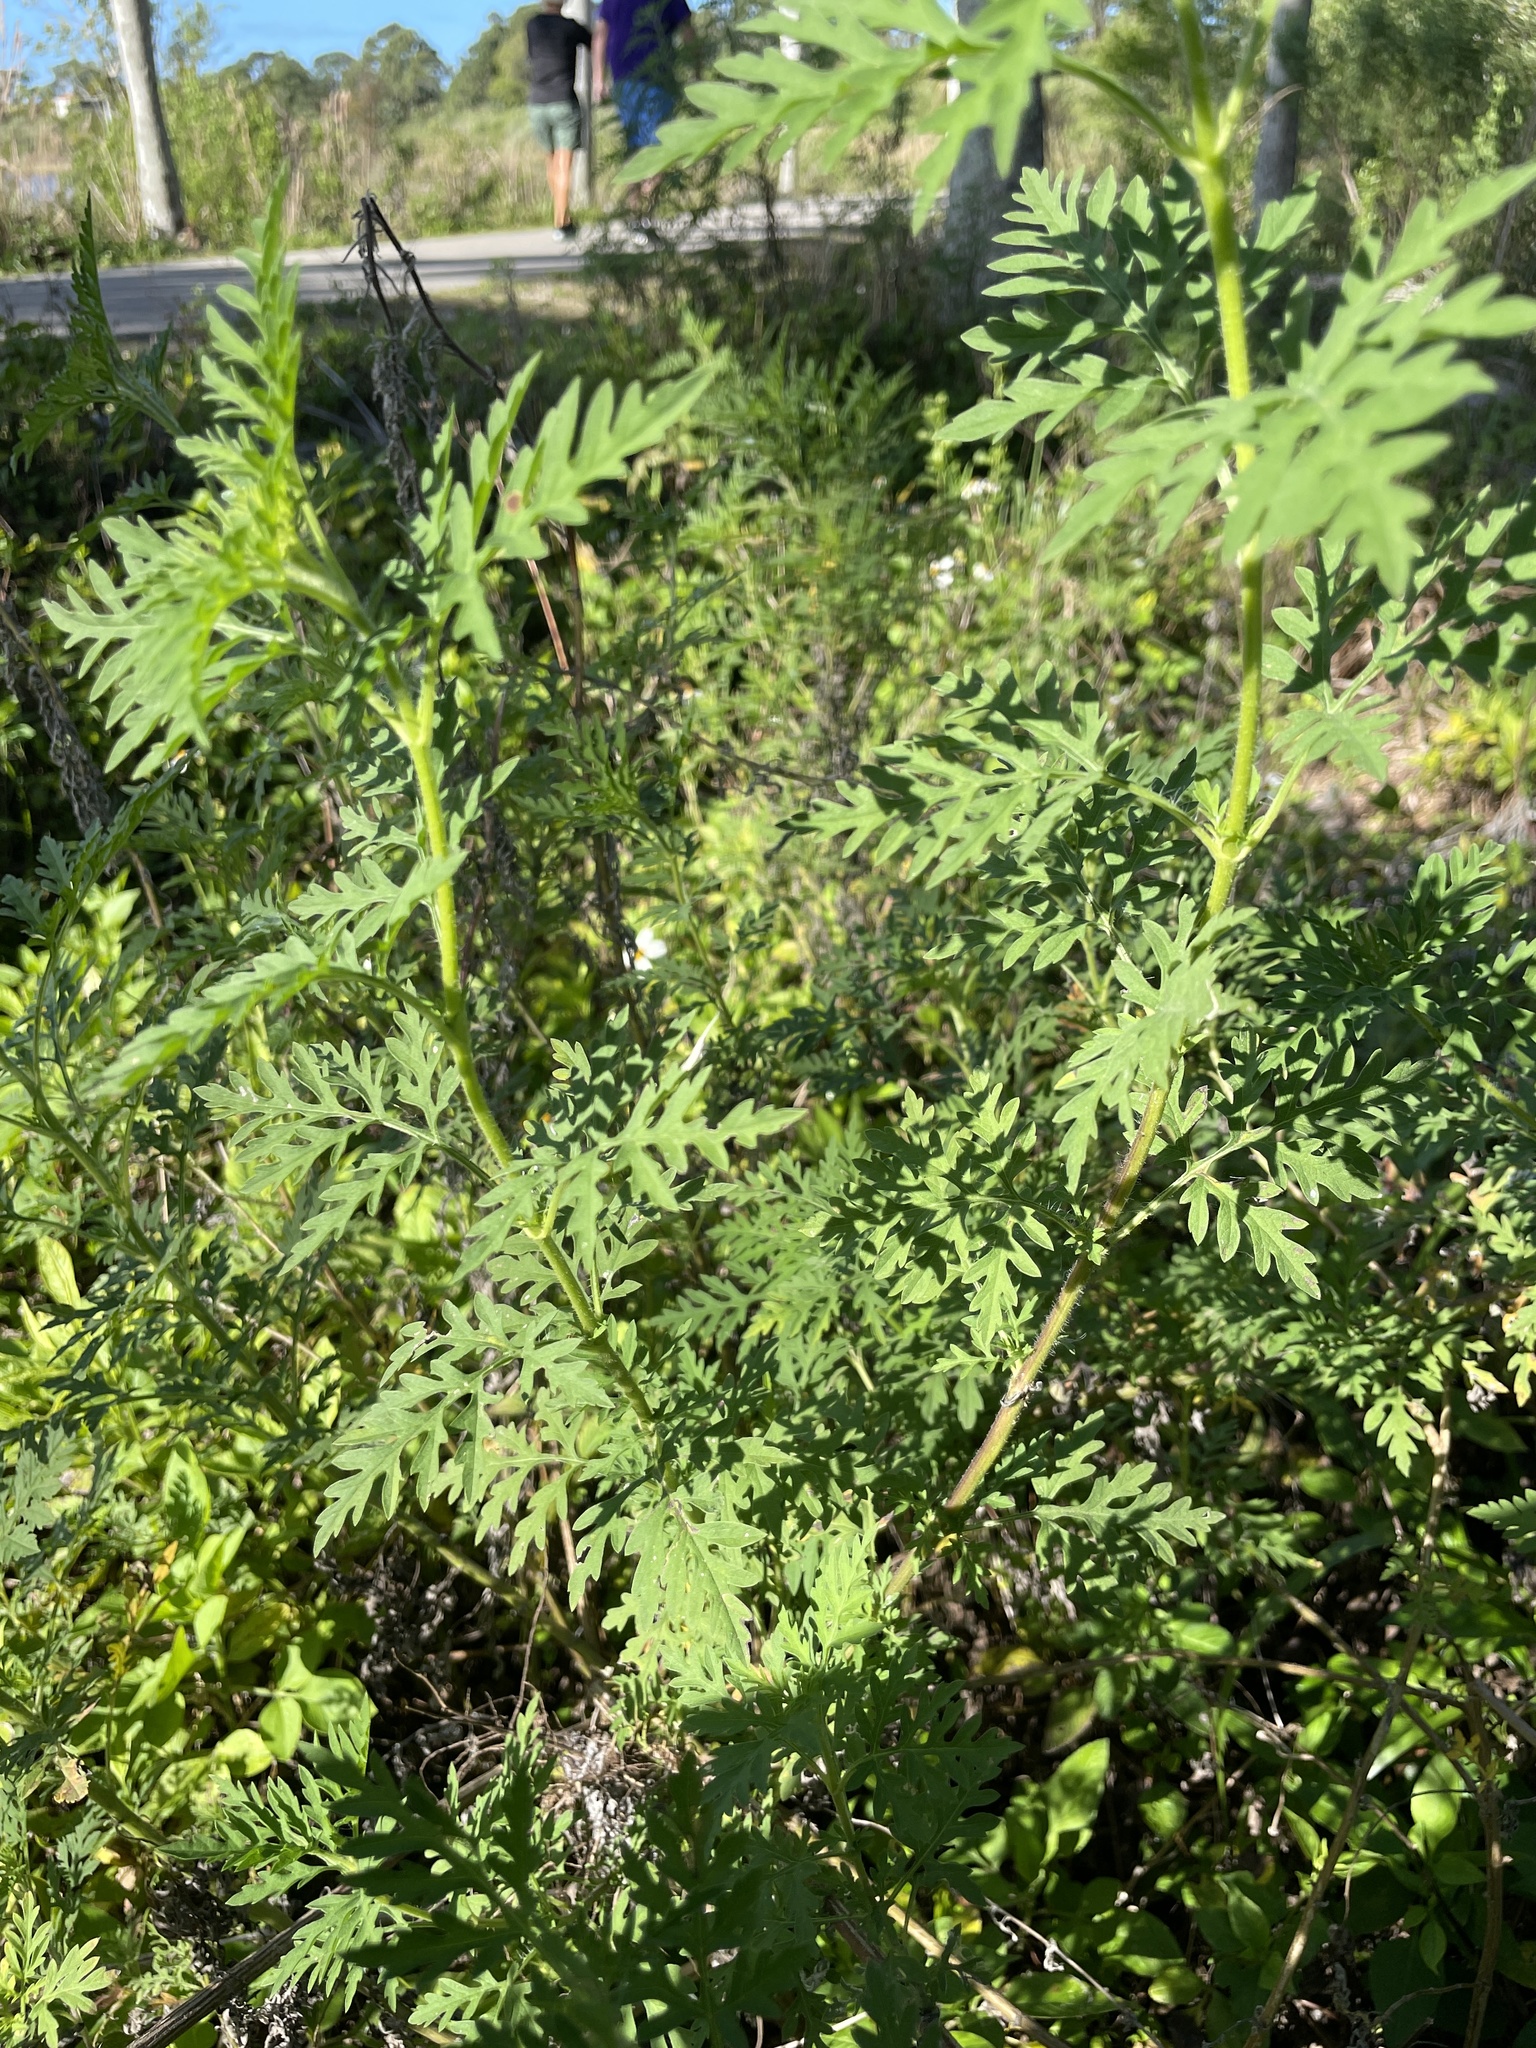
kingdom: Plantae
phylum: Tracheophyta
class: Magnoliopsida
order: Asterales
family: Asteraceae
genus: Ambrosia
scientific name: Ambrosia artemisiifolia
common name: Annual ragweed
